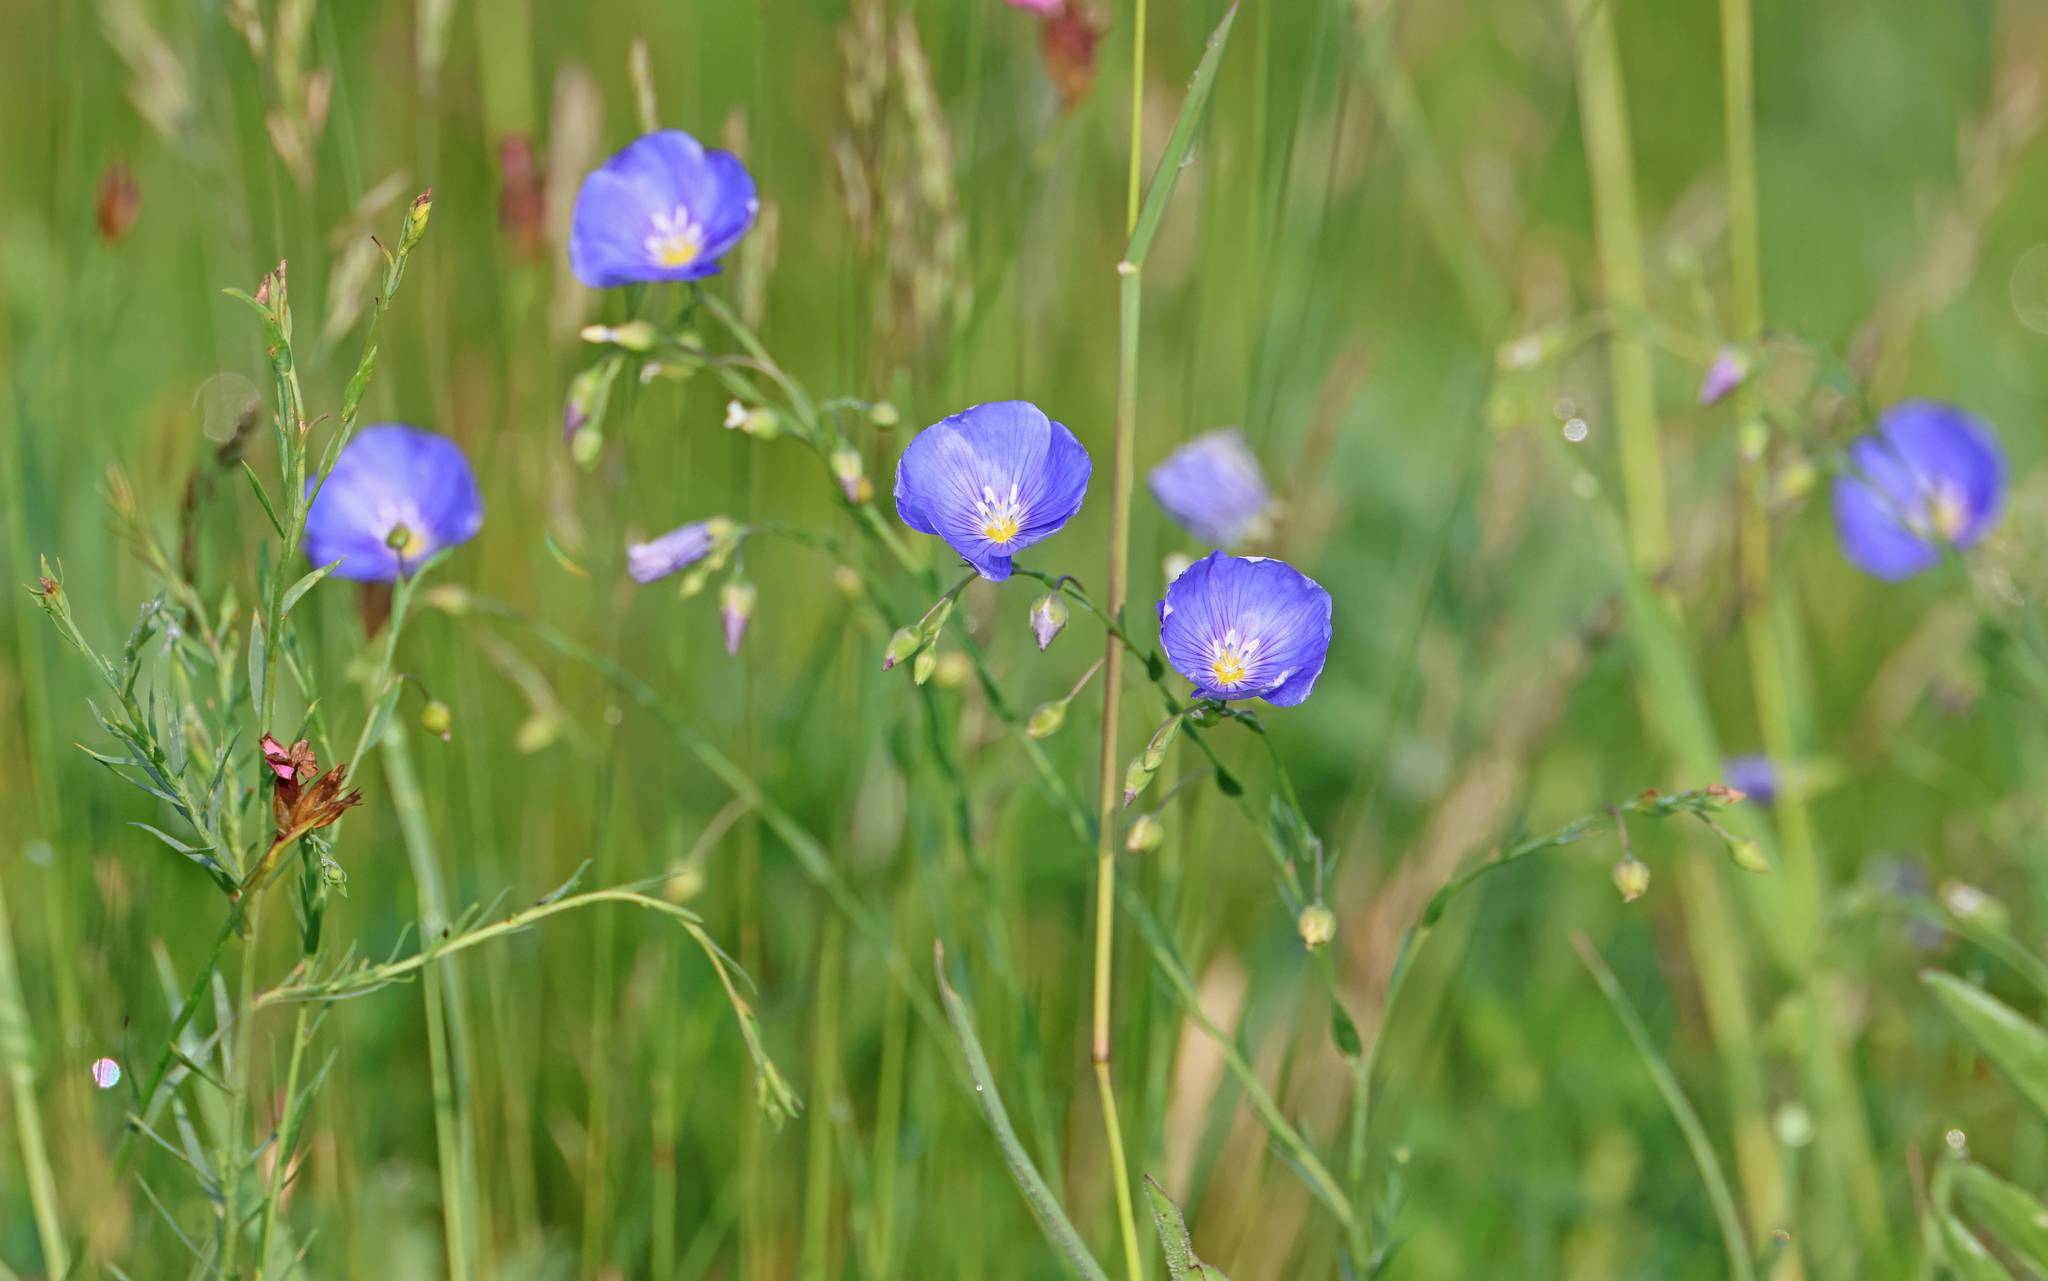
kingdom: Plantae
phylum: Tracheophyta
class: Magnoliopsida
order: Malpighiales
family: Linaceae
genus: Linum
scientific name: Linum austriacum
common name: Austrian flax
